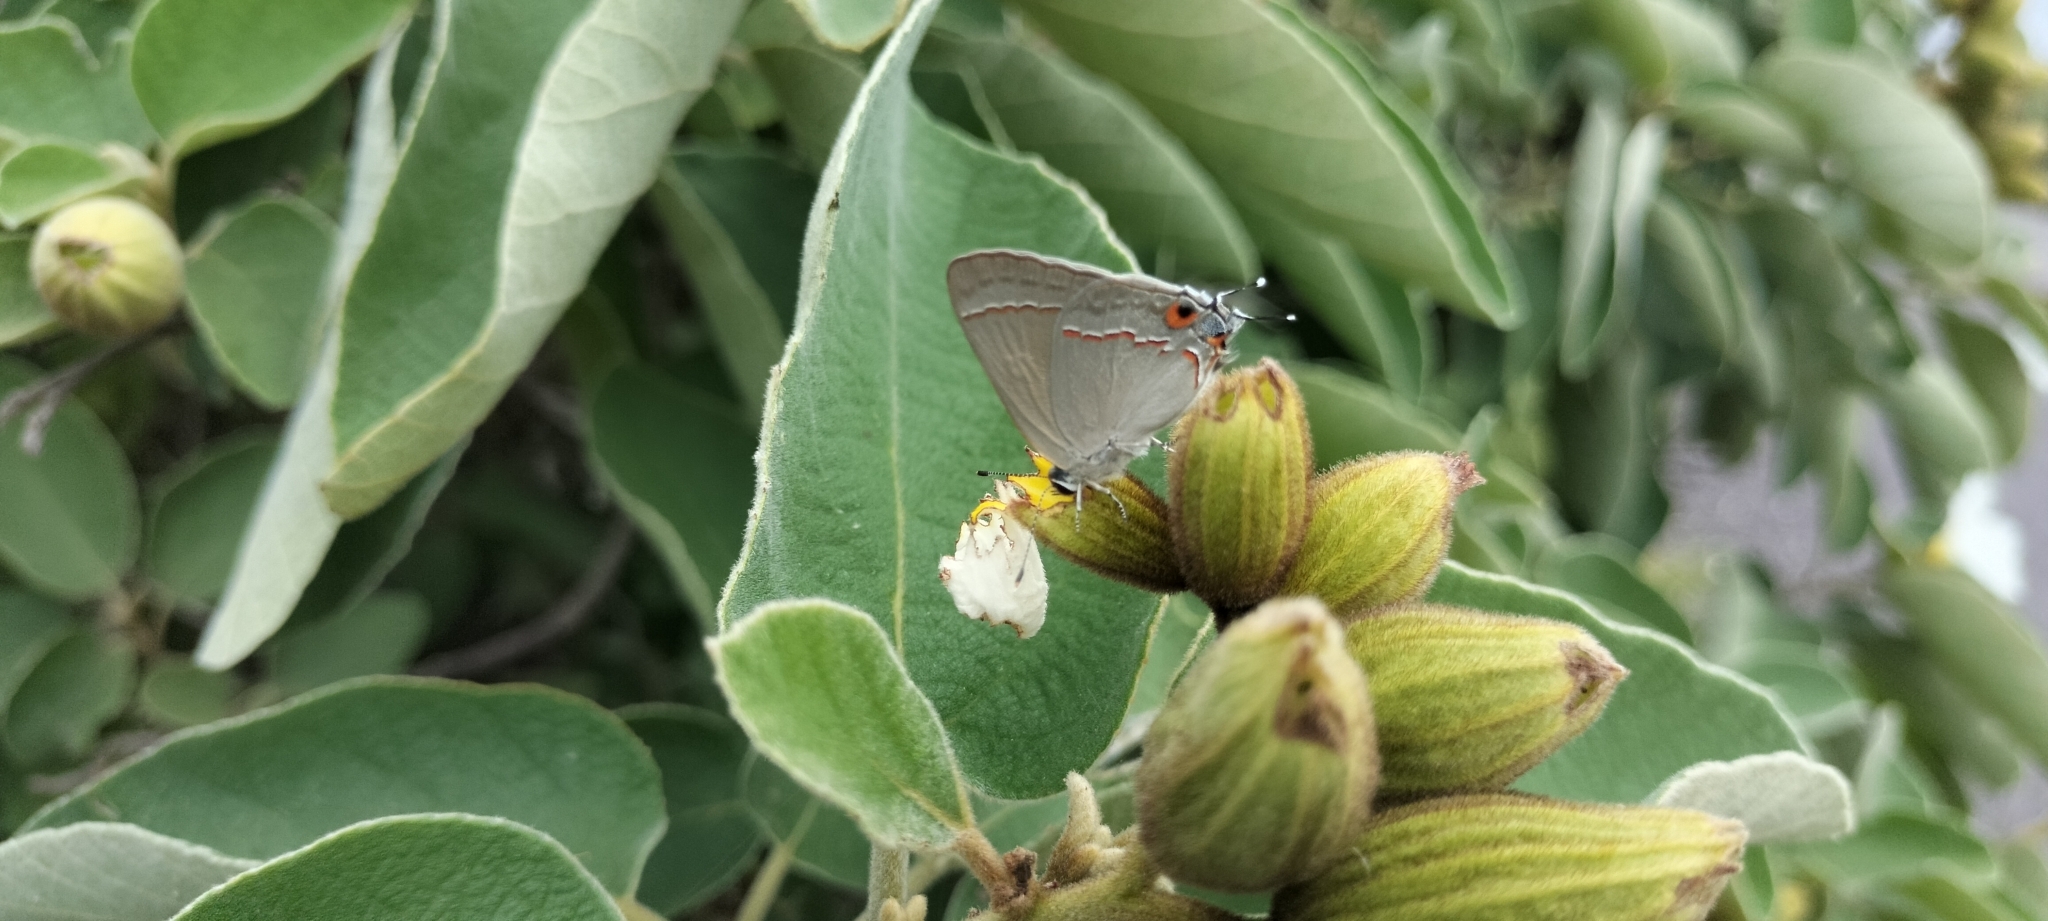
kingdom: Animalia
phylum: Arthropoda
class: Insecta
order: Lepidoptera
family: Lycaenidae
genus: Thecla
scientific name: Thecla bebrycia
